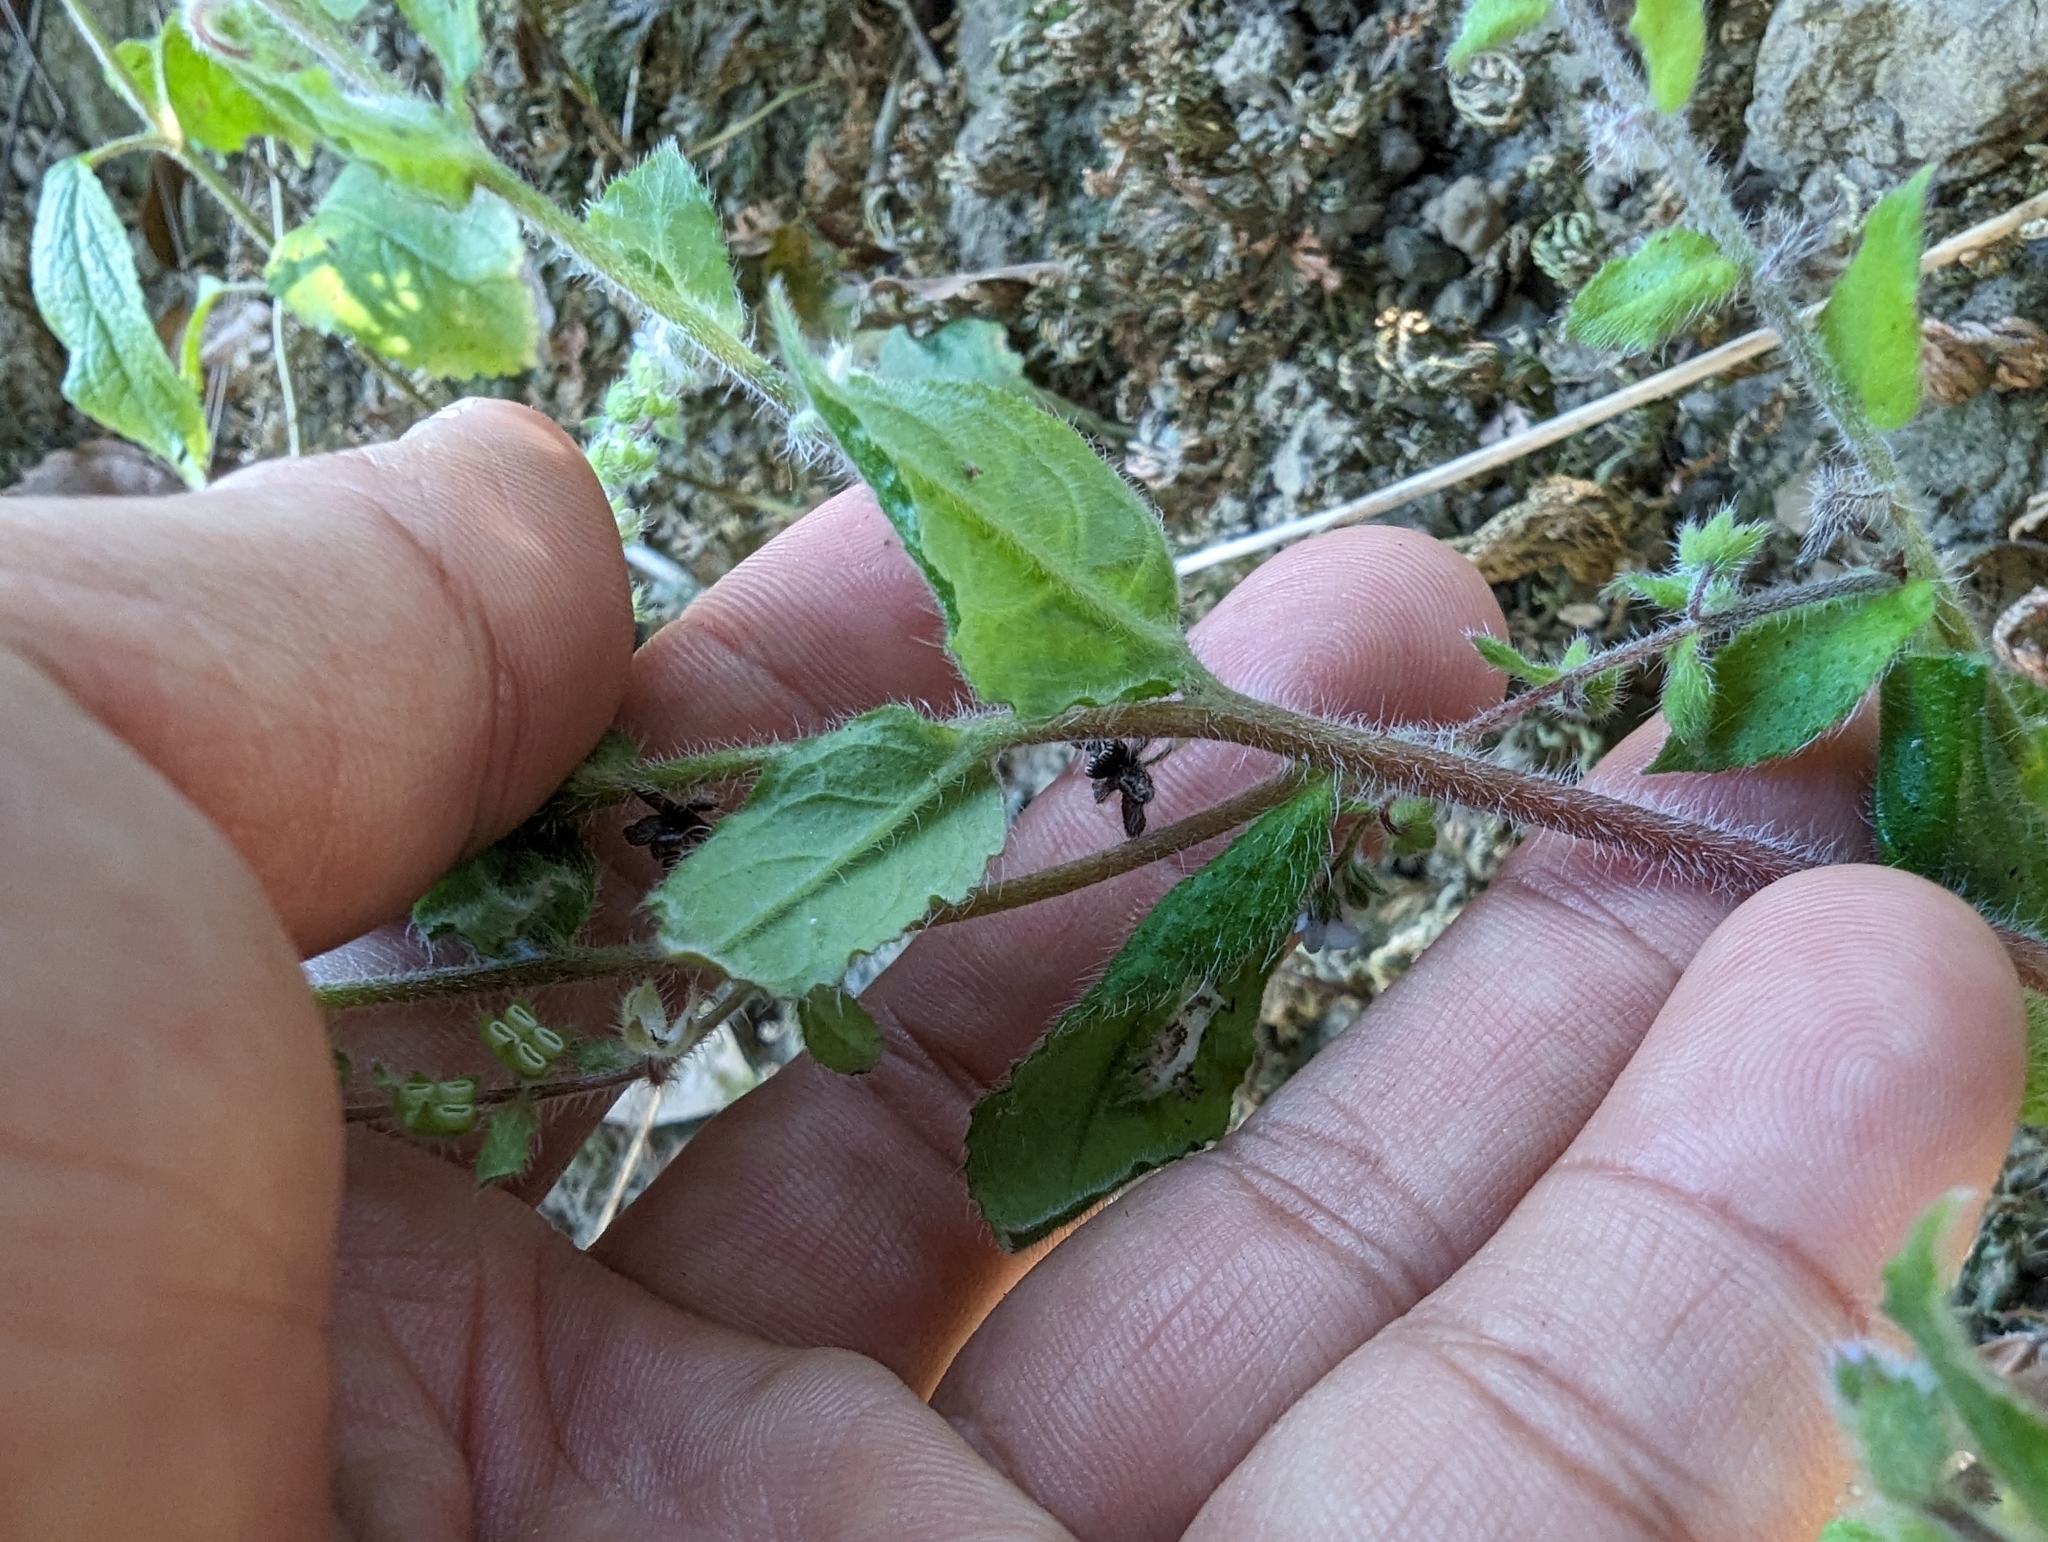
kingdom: Plantae
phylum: Tracheophyta
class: Magnoliopsida
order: Boraginales
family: Boraginaceae
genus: Thyrocarpus
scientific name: Thyrocarpus sampsonii
